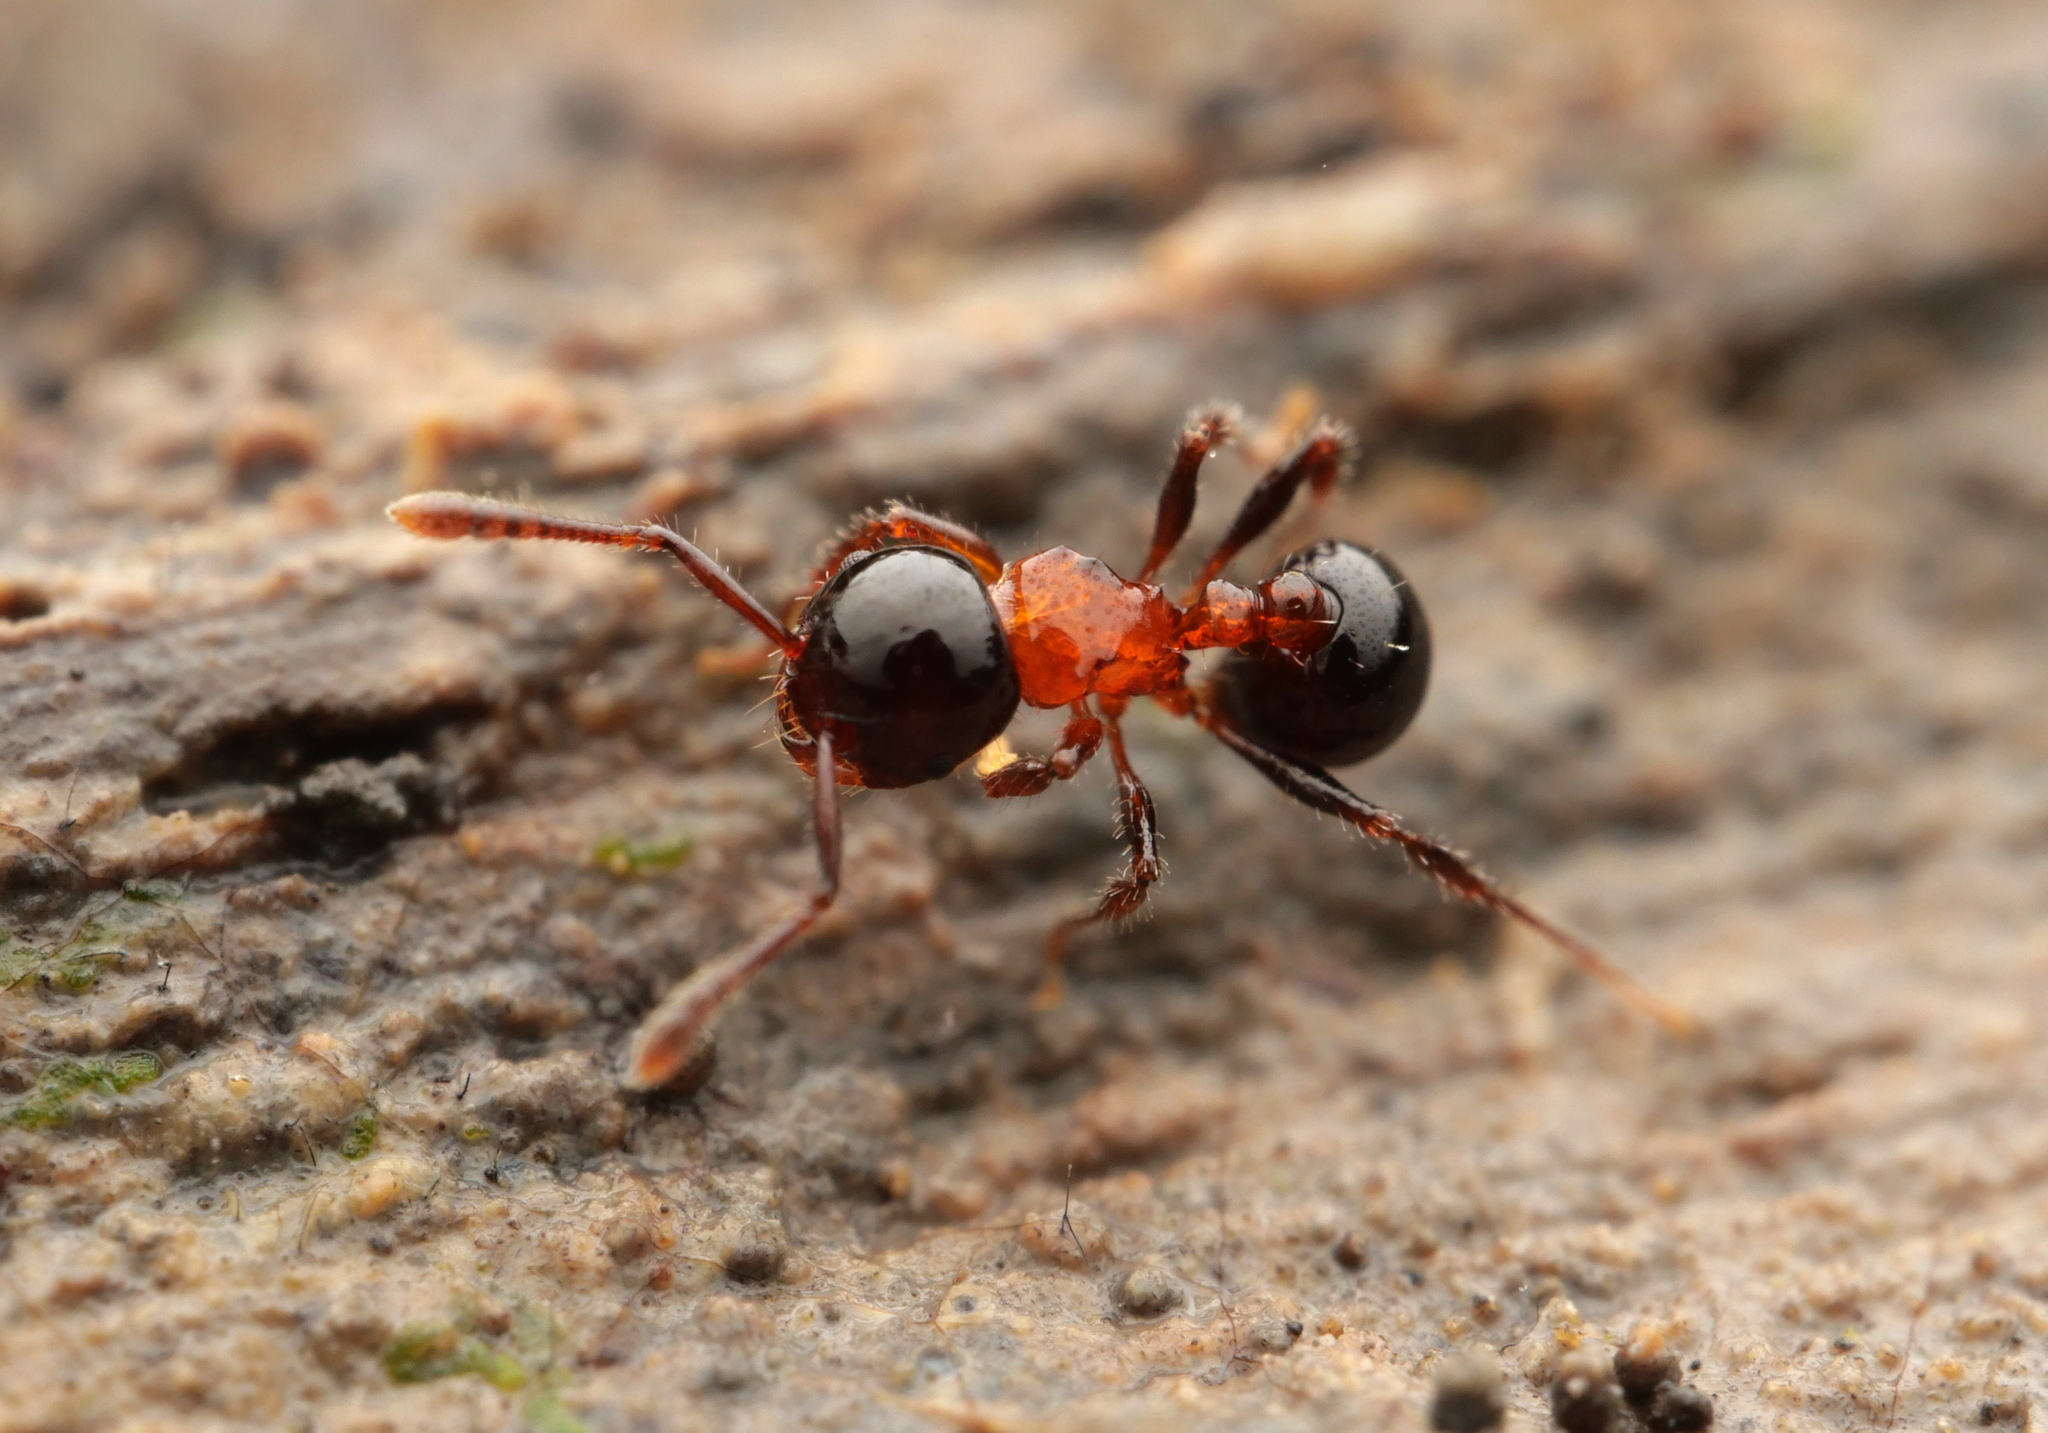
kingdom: Animalia
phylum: Arthropoda
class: Insecta
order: Hymenoptera
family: Formicidae
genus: Pristomyrmex
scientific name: Pristomyrmex
